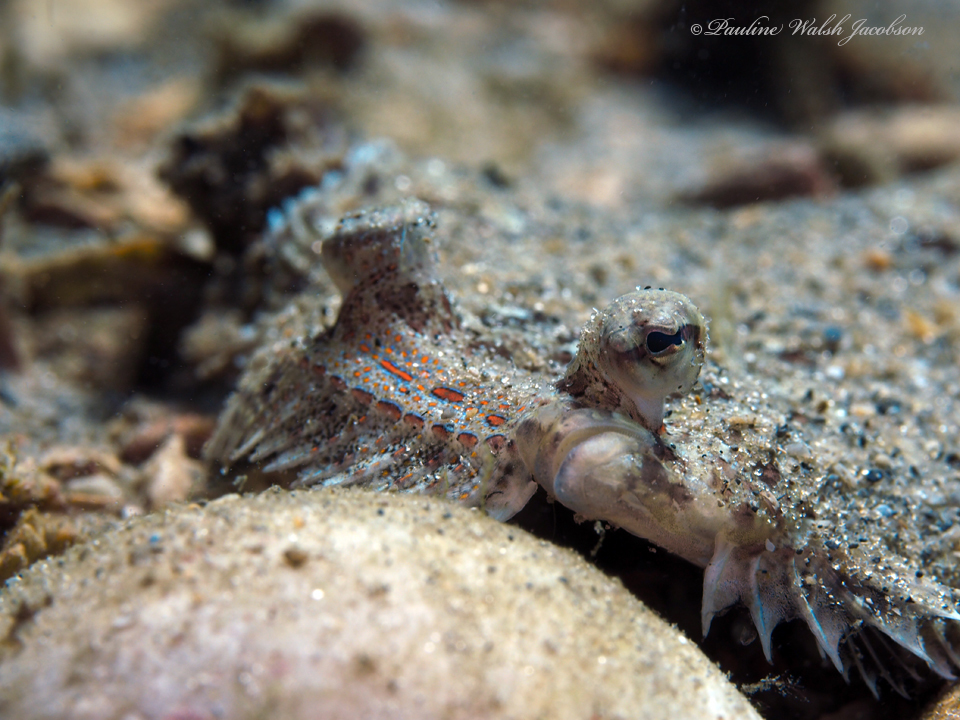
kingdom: Animalia
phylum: Chordata
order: Pleuronectiformes
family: Bothidae
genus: Bothus
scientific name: Bothus ocellatus
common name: Eyed flounder
